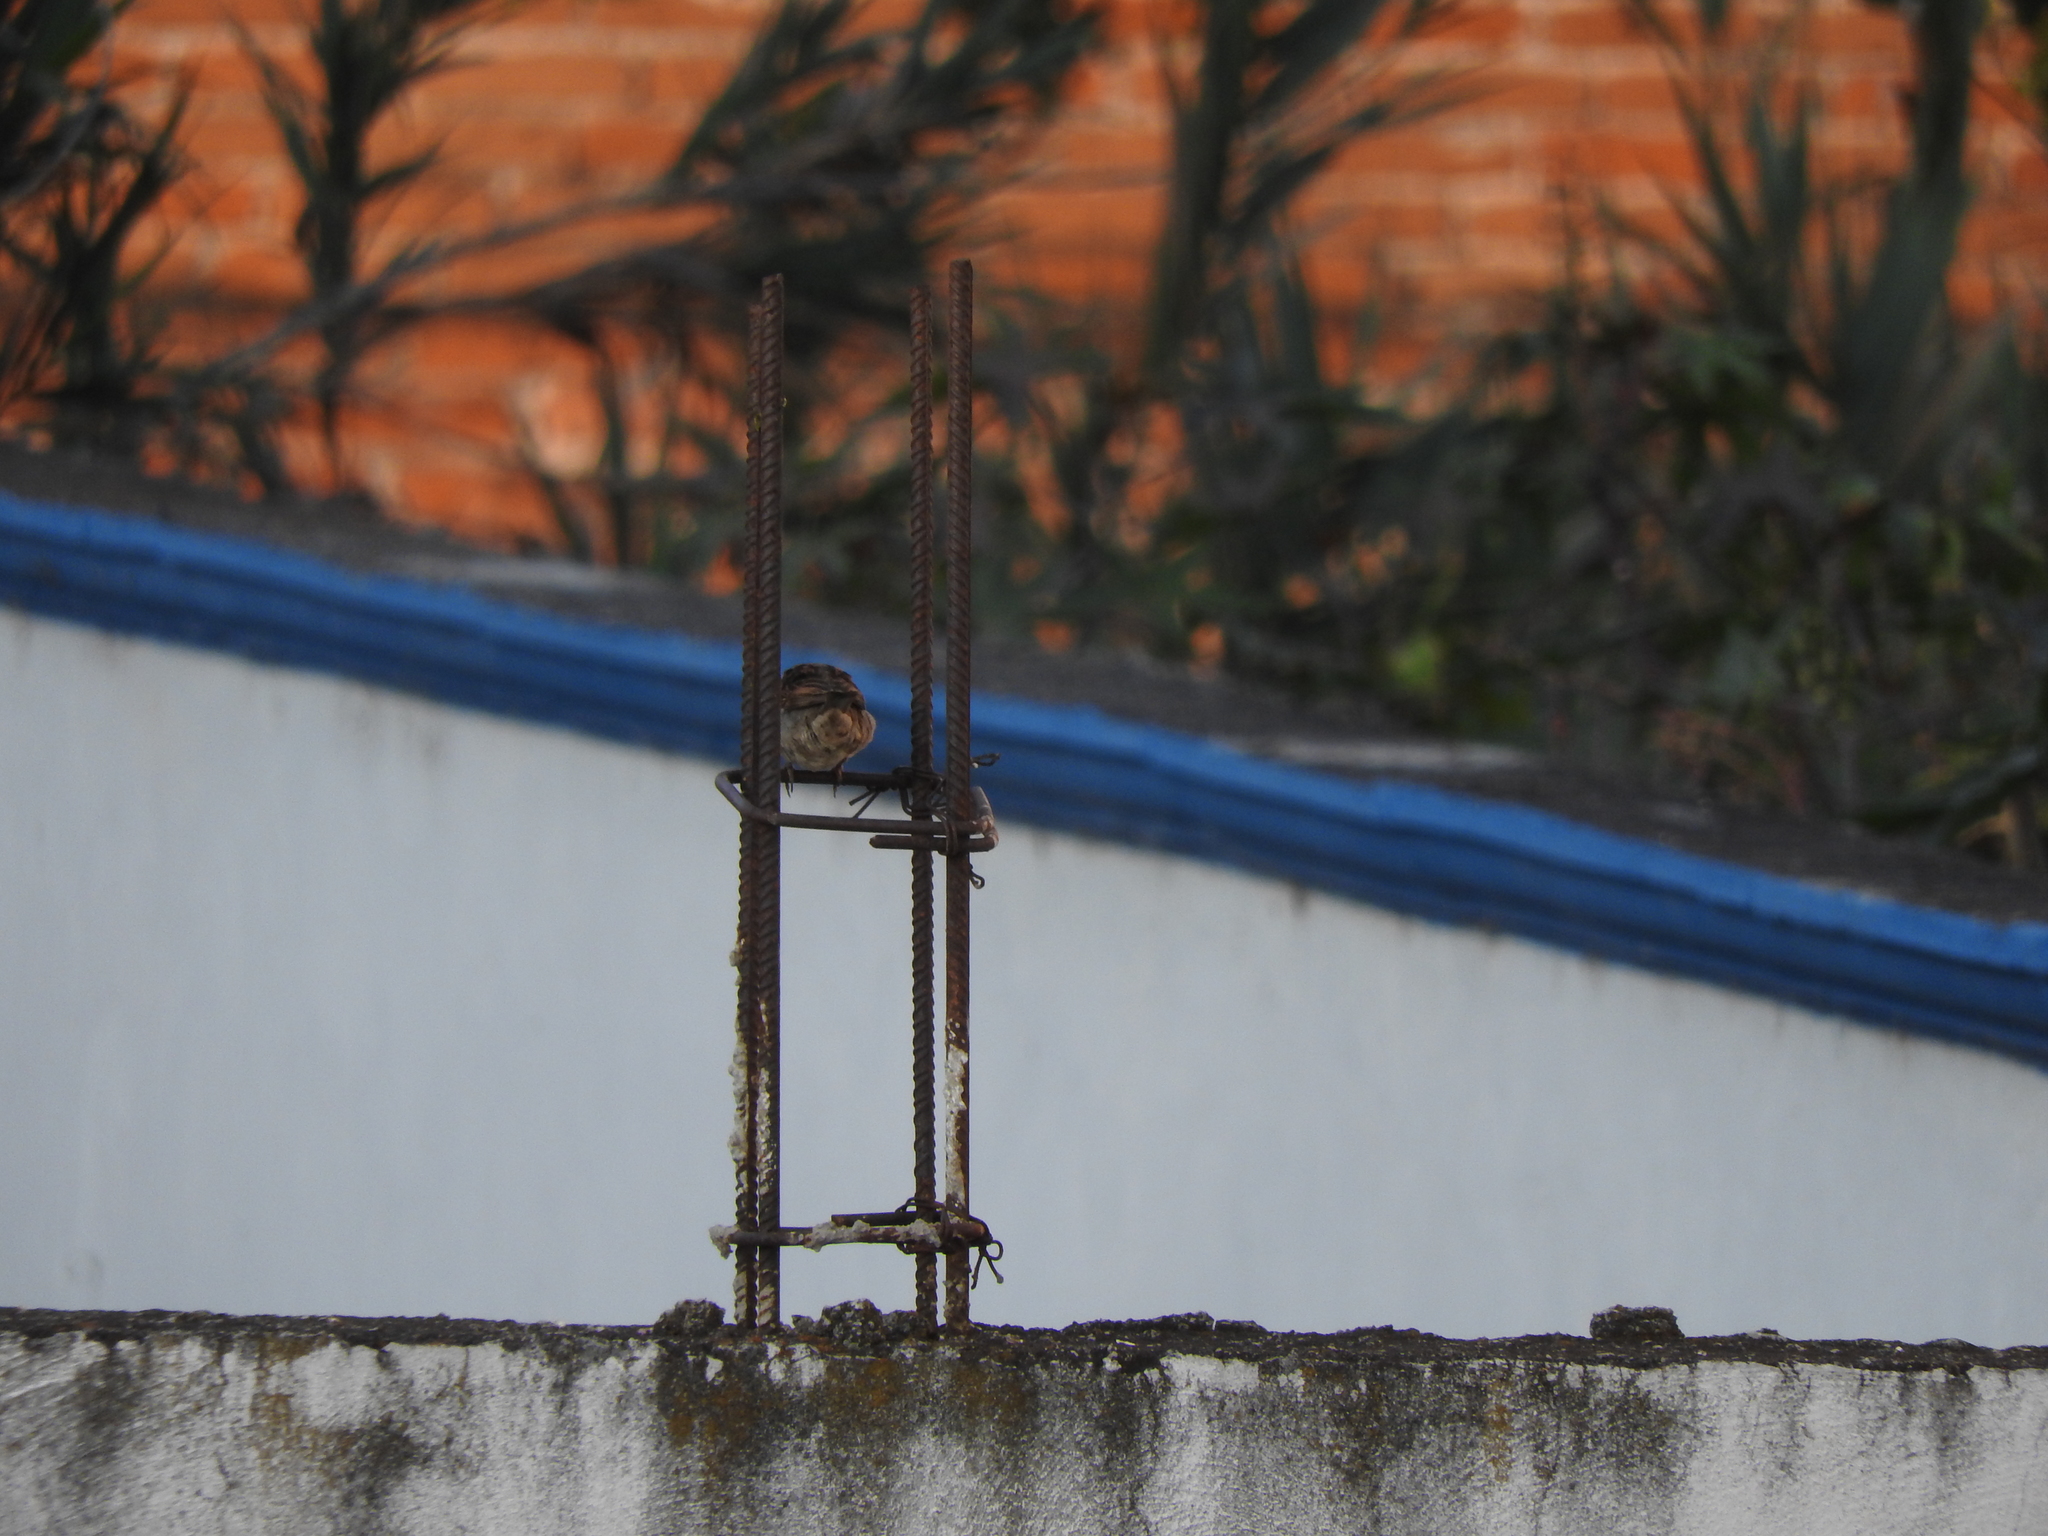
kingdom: Animalia
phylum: Chordata
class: Aves
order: Passeriformes
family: Passeridae
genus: Passer
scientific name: Passer domesticus
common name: House sparrow
